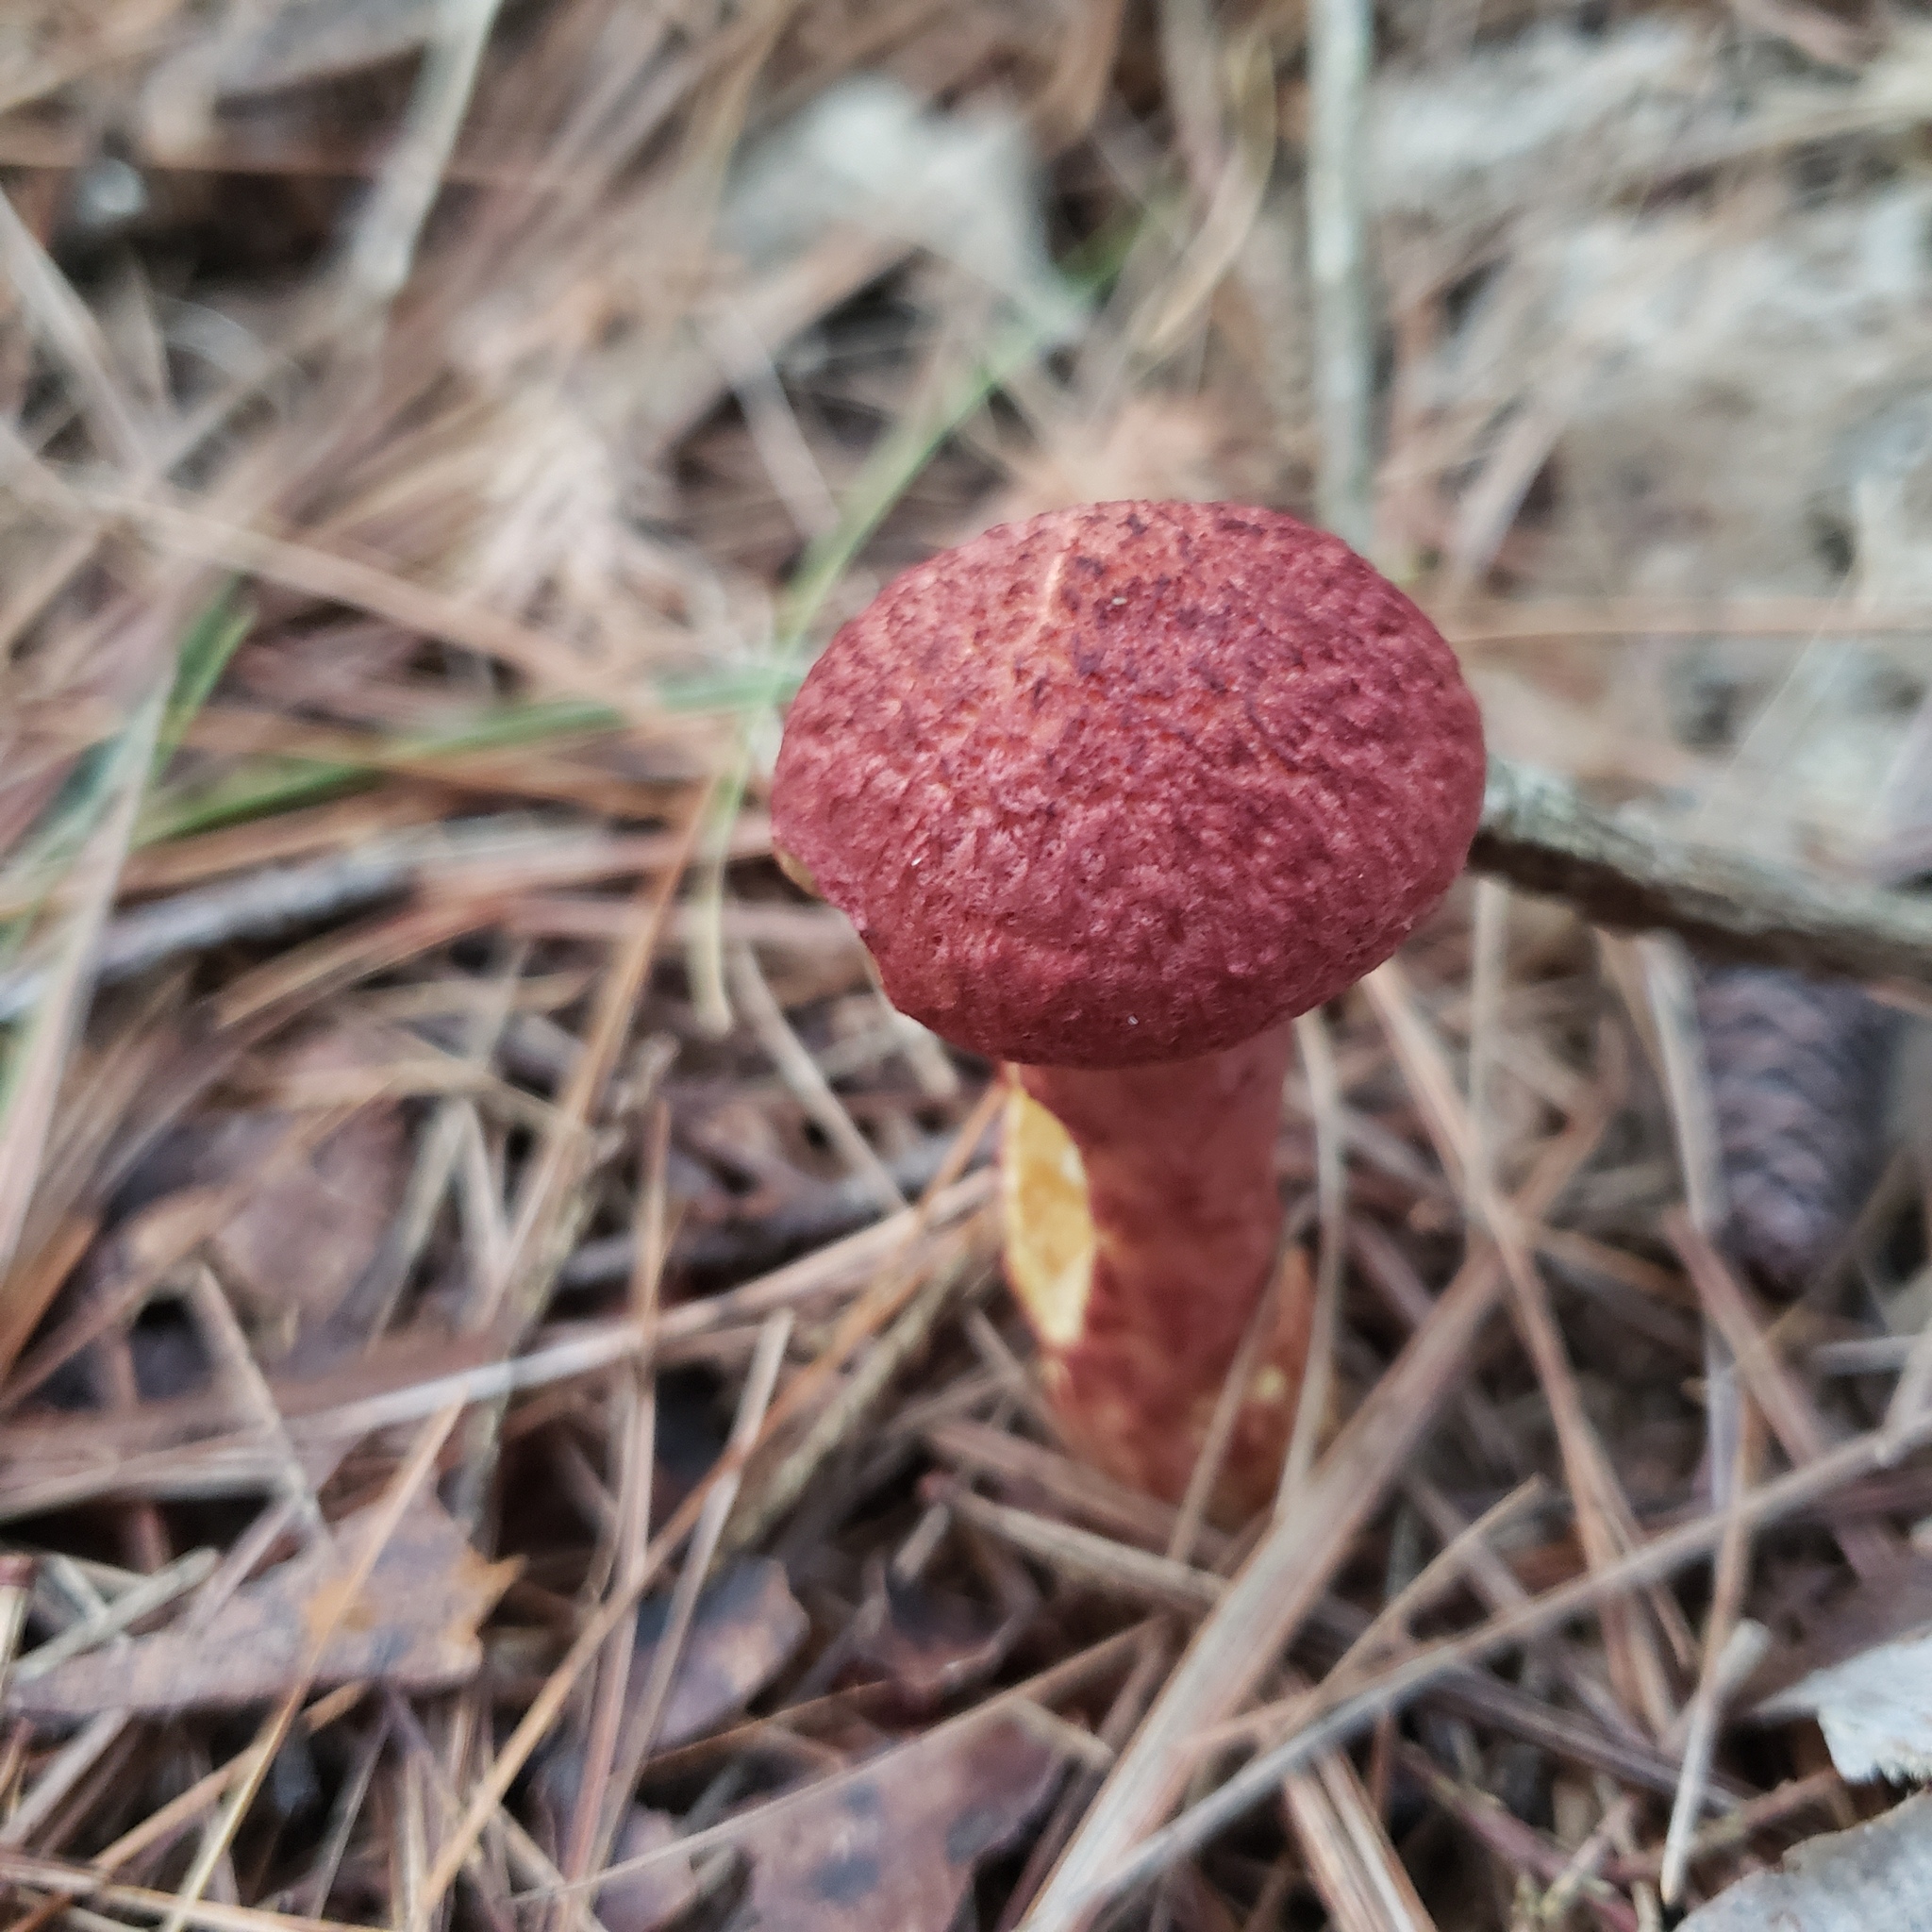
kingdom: Fungi
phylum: Basidiomycota
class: Agaricomycetes
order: Boletales
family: Suillaceae
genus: Suillus
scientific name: Suillus spraguei
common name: Painted suillus
